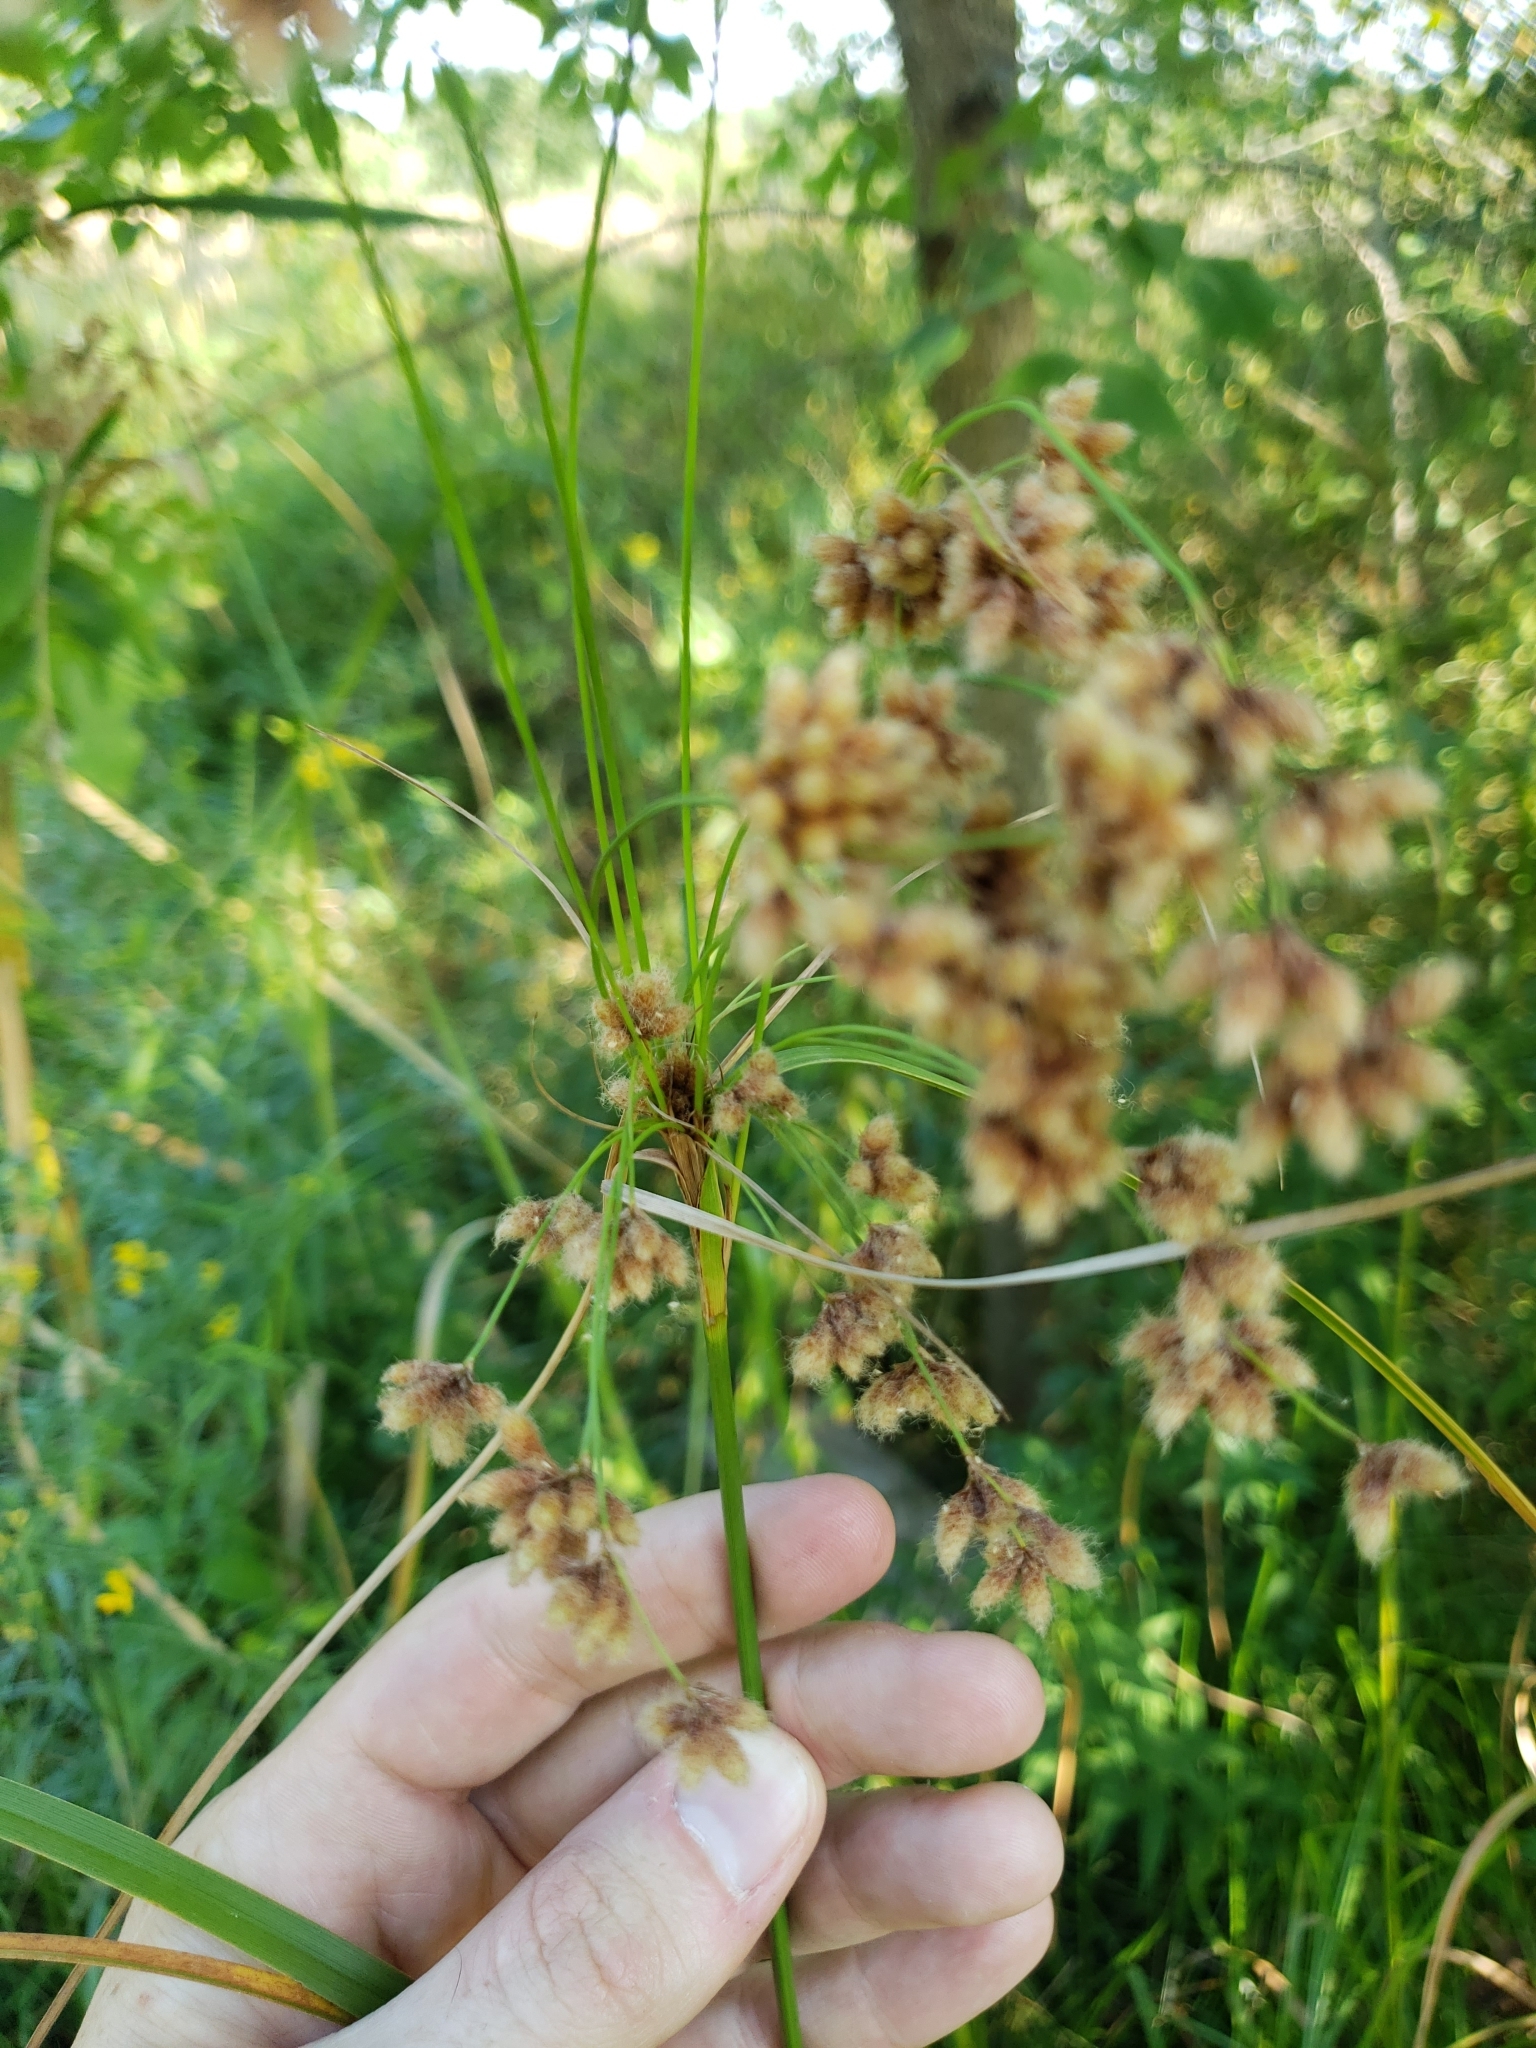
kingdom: Plantae
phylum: Tracheophyta
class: Liliopsida
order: Poales
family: Cyperaceae
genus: Scirpus
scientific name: Scirpus cyperinus
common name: Black-sheathed bulrush
